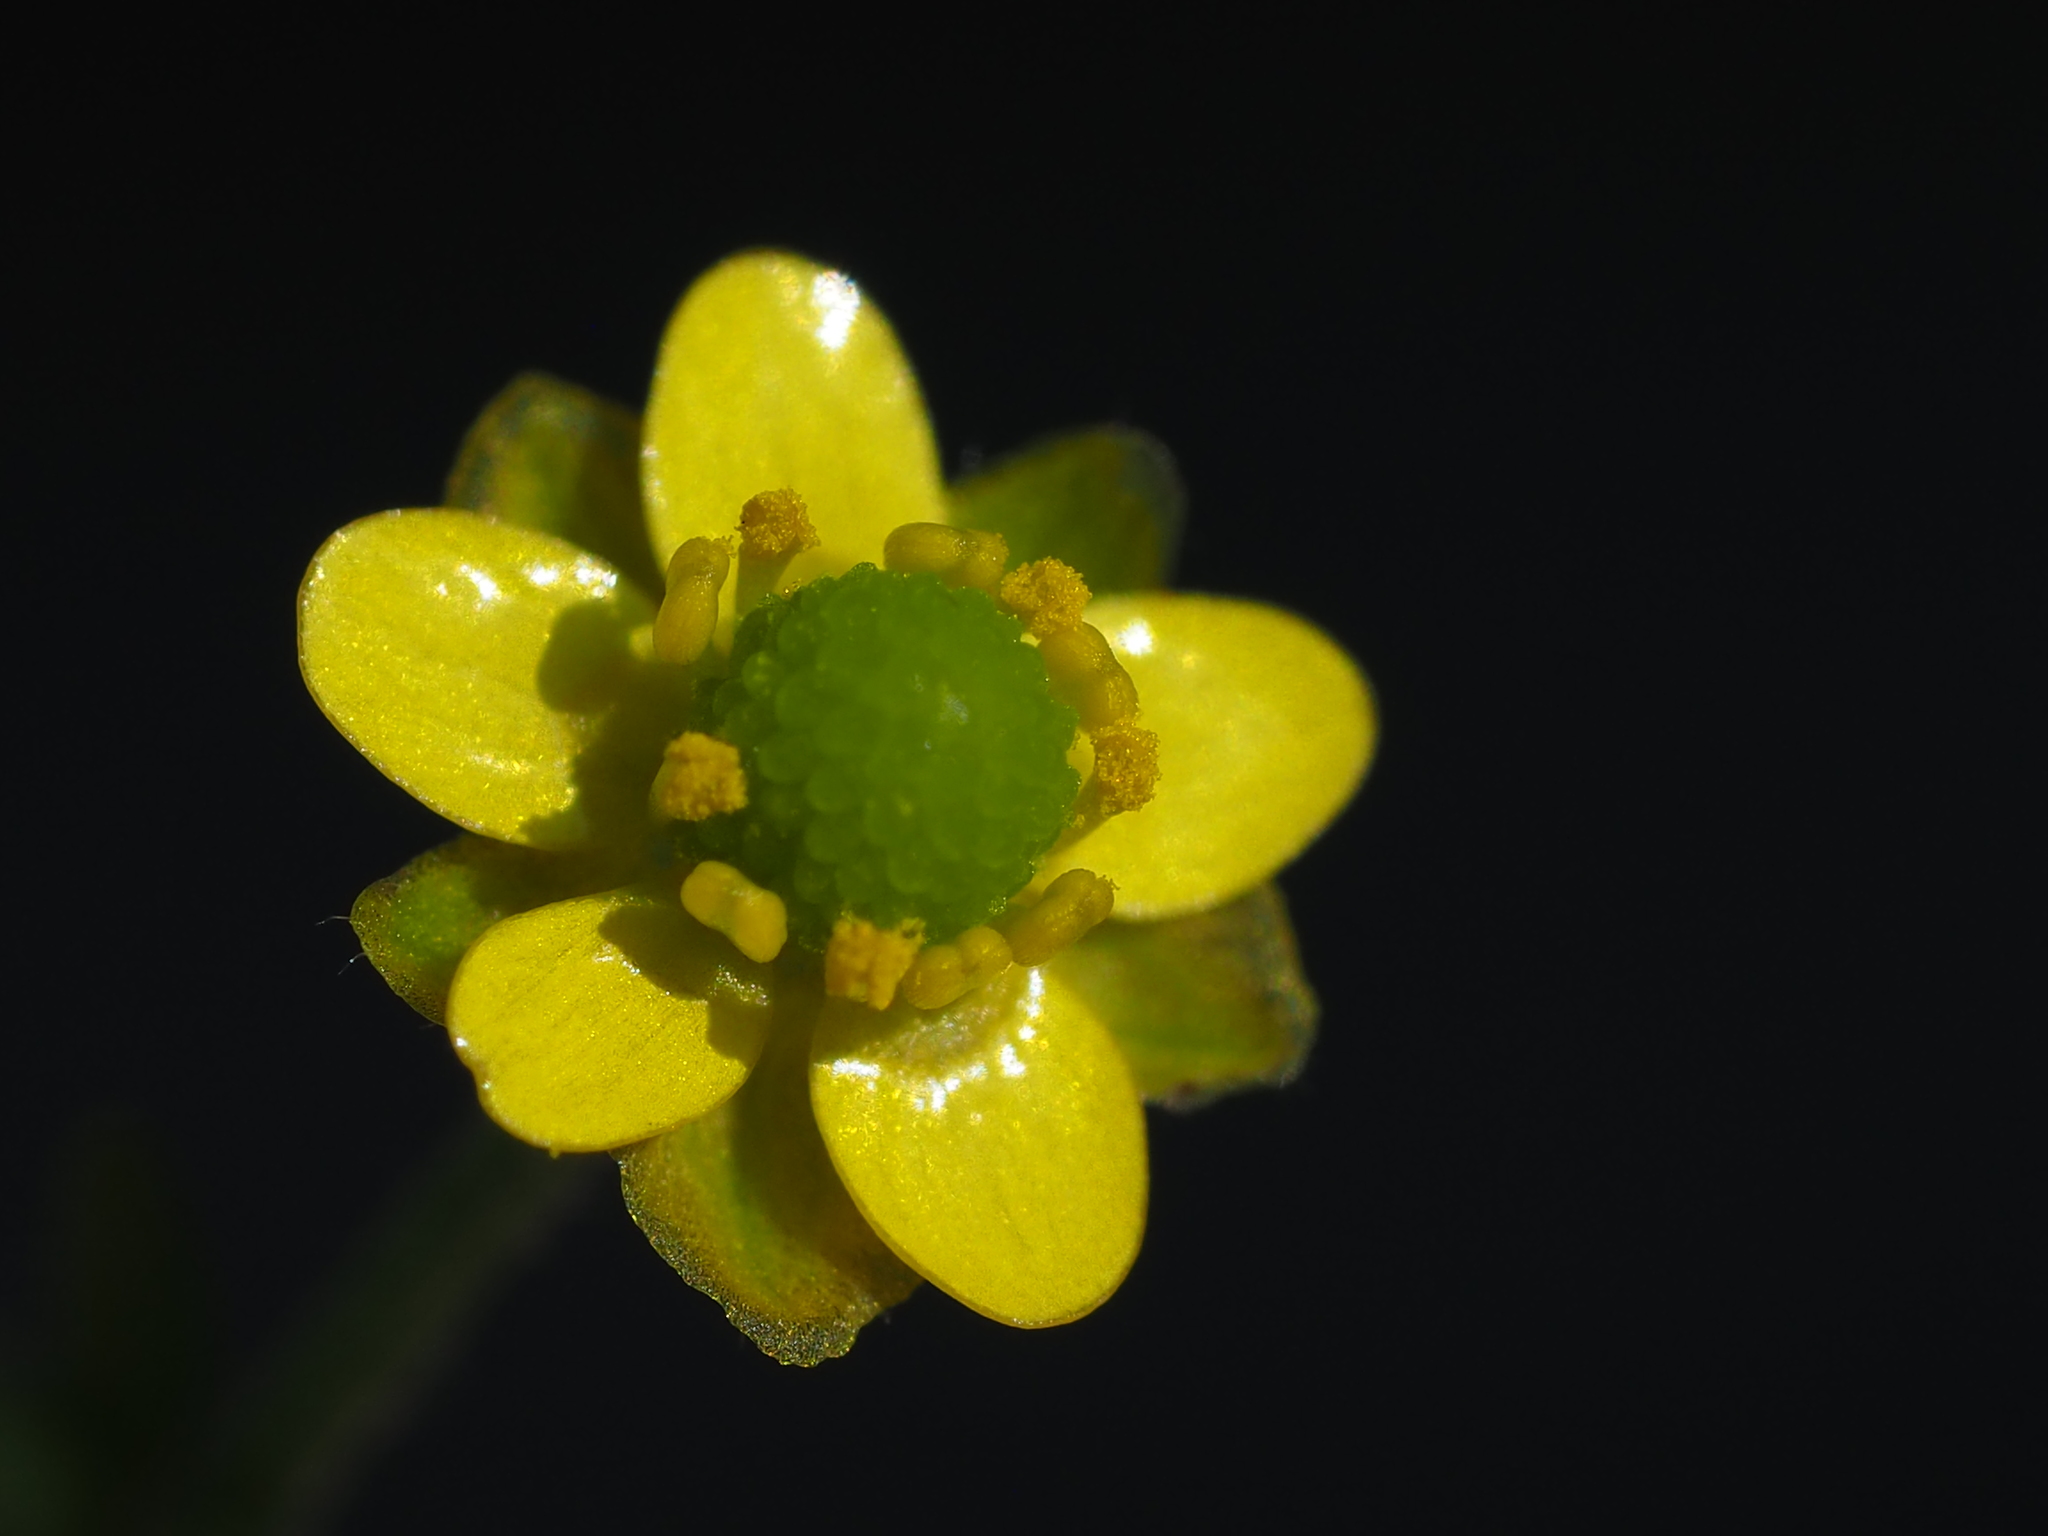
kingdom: Plantae
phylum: Tracheophyta
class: Magnoliopsida
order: Ranunculales
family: Ranunculaceae
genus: Ranunculus
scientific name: Ranunculus sceleratus
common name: Celery-leaved buttercup
